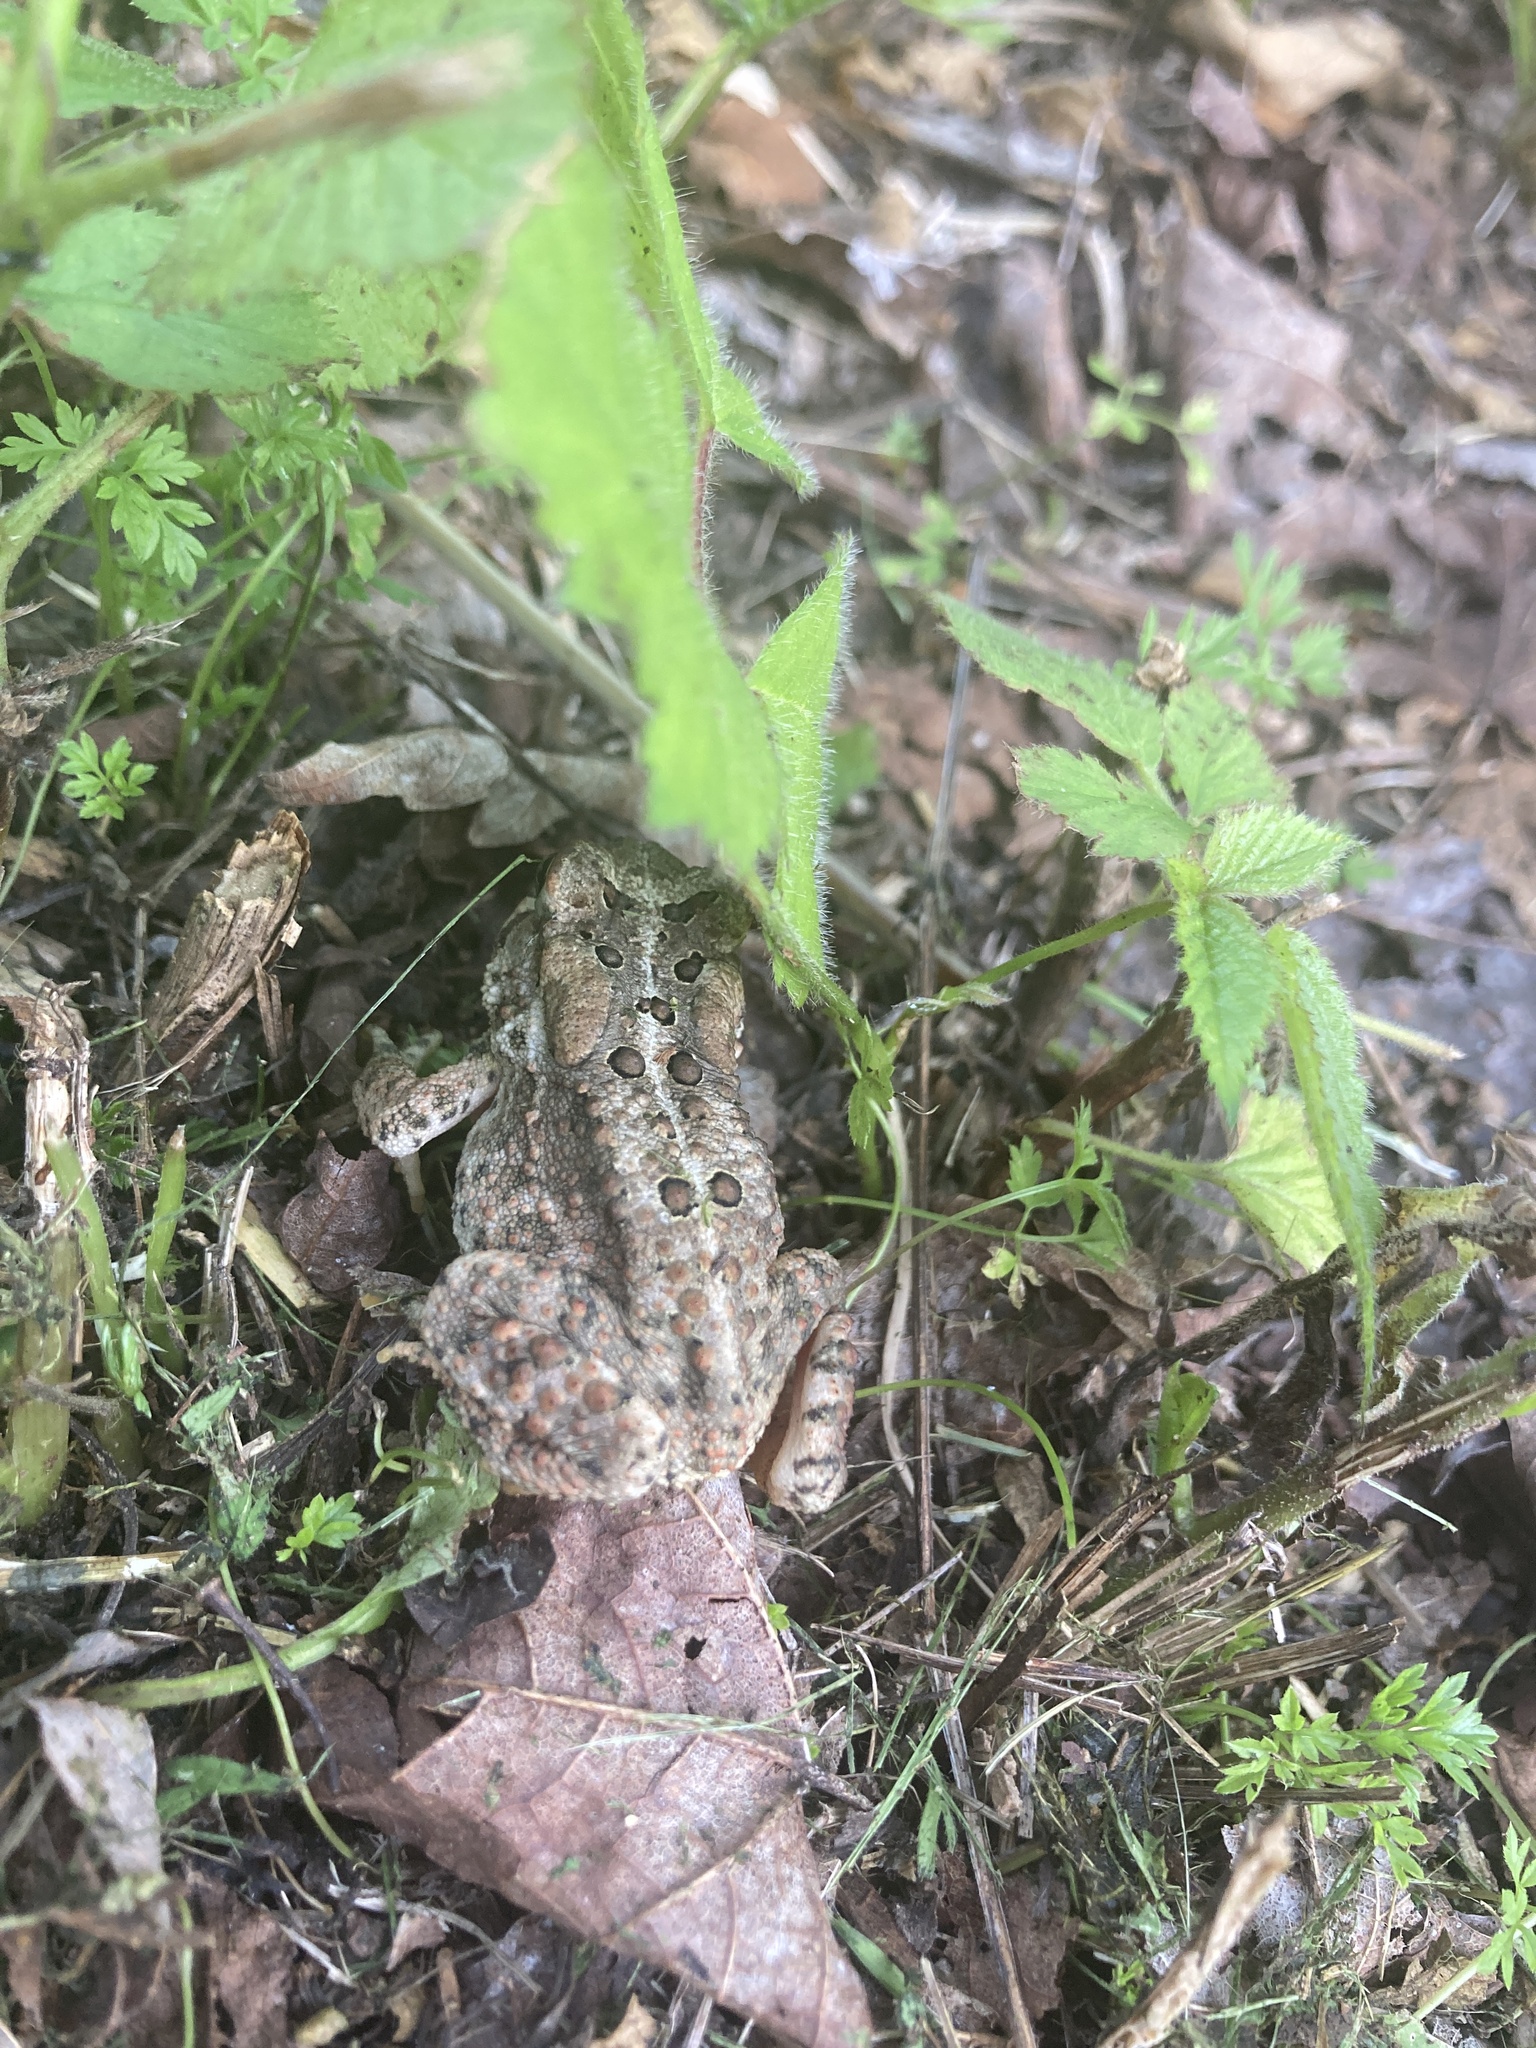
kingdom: Animalia
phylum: Chordata
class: Amphibia
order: Anura
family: Bufonidae
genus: Anaxyrus
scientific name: Anaxyrus americanus
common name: American toad
